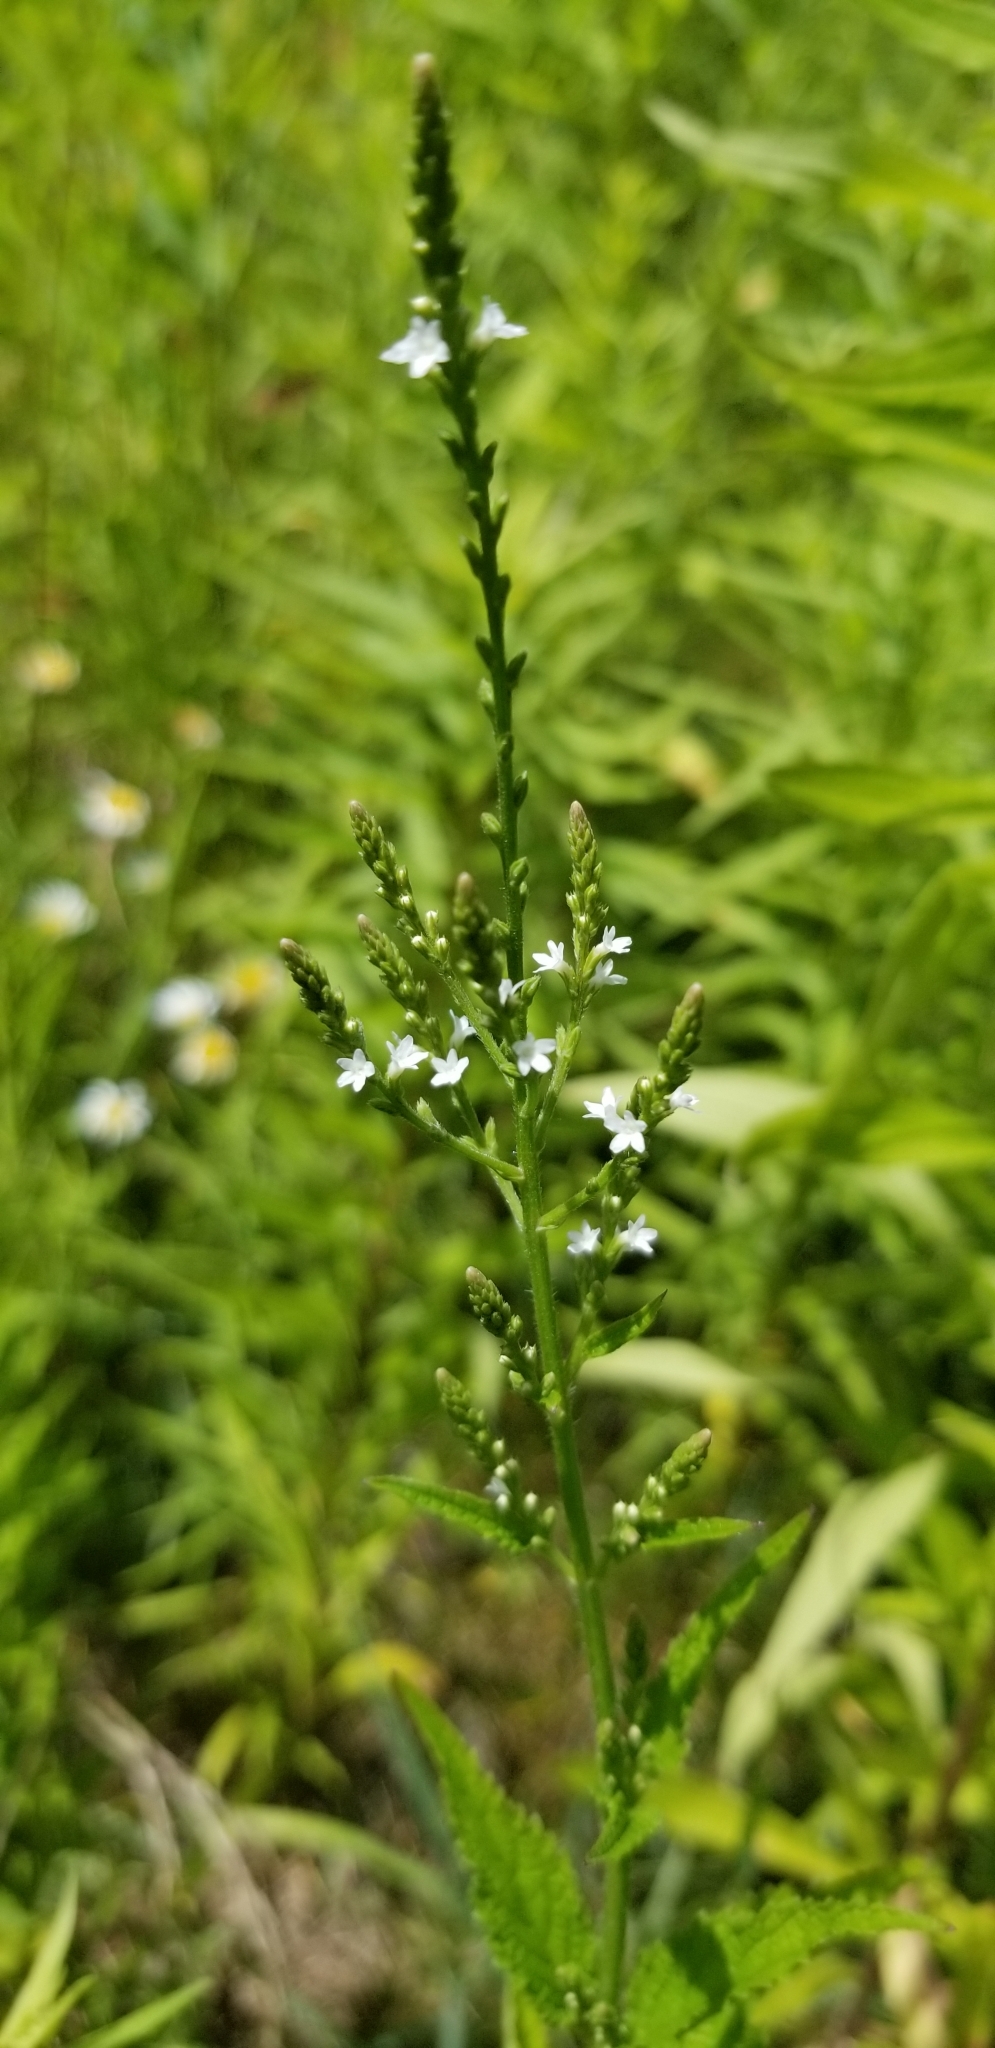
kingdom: Plantae
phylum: Tracheophyta
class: Magnoliopsida
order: Lamiales
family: Verbenaceae
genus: Verbena
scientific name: Verbena urticifolia
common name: Nettle-leaved vervain
